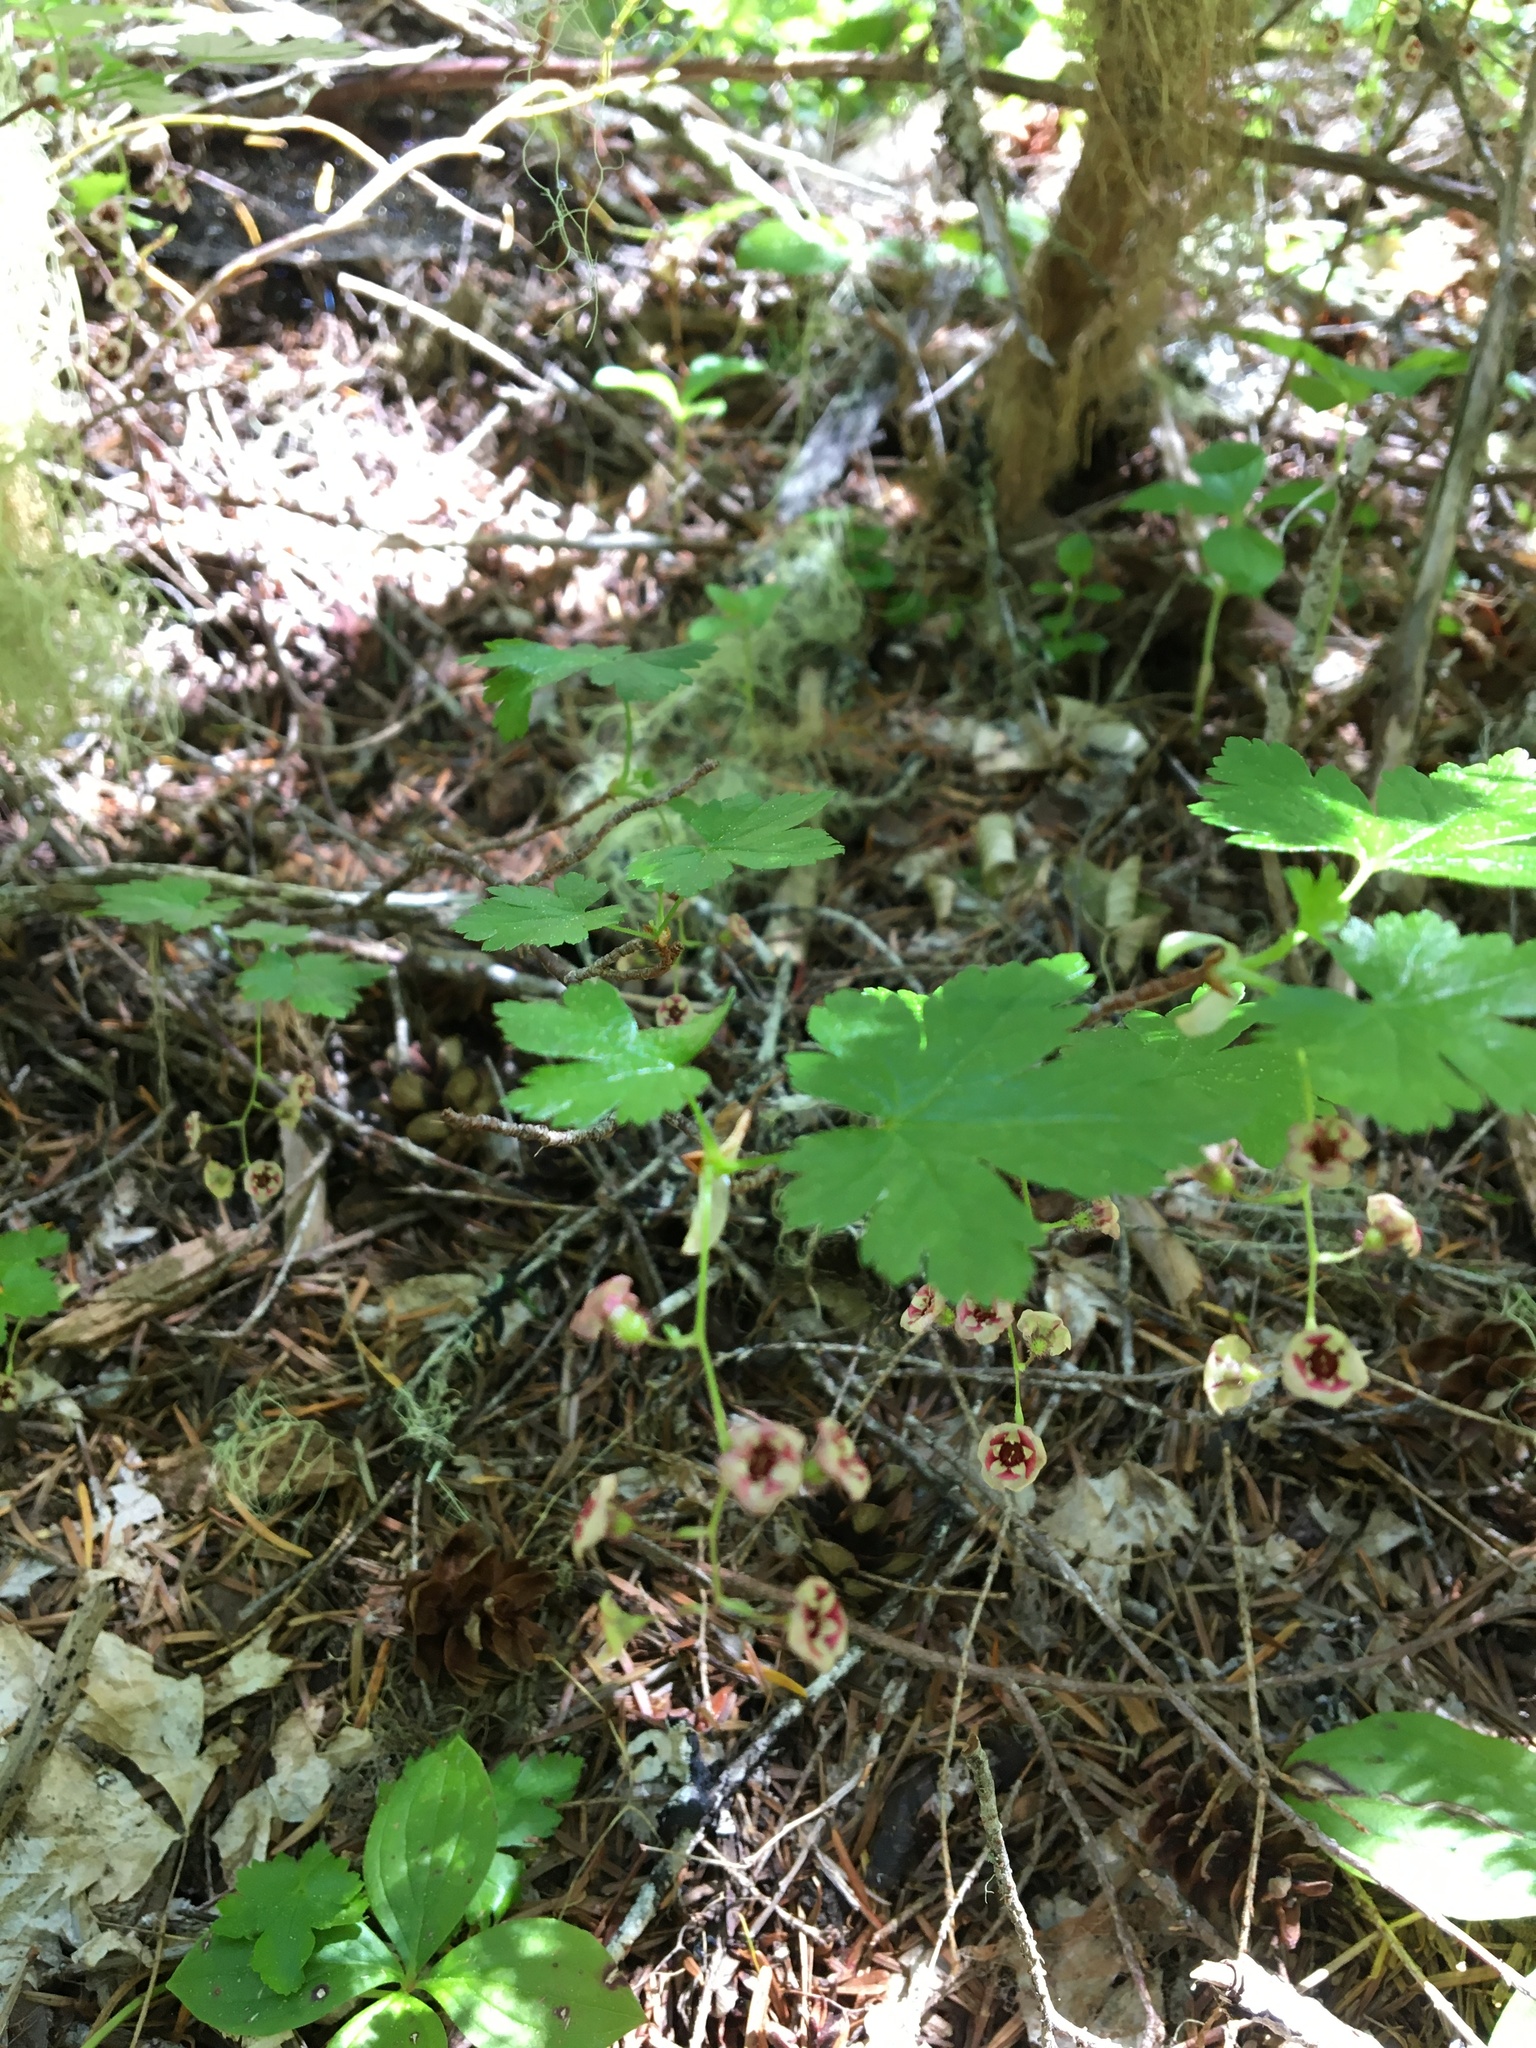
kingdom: Plantae
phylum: Tracheophyta
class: Magnoliopsida
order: Saxifragales
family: Grossulariaceae
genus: Ribes
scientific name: Ribes lacustre
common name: Black gooseberry
